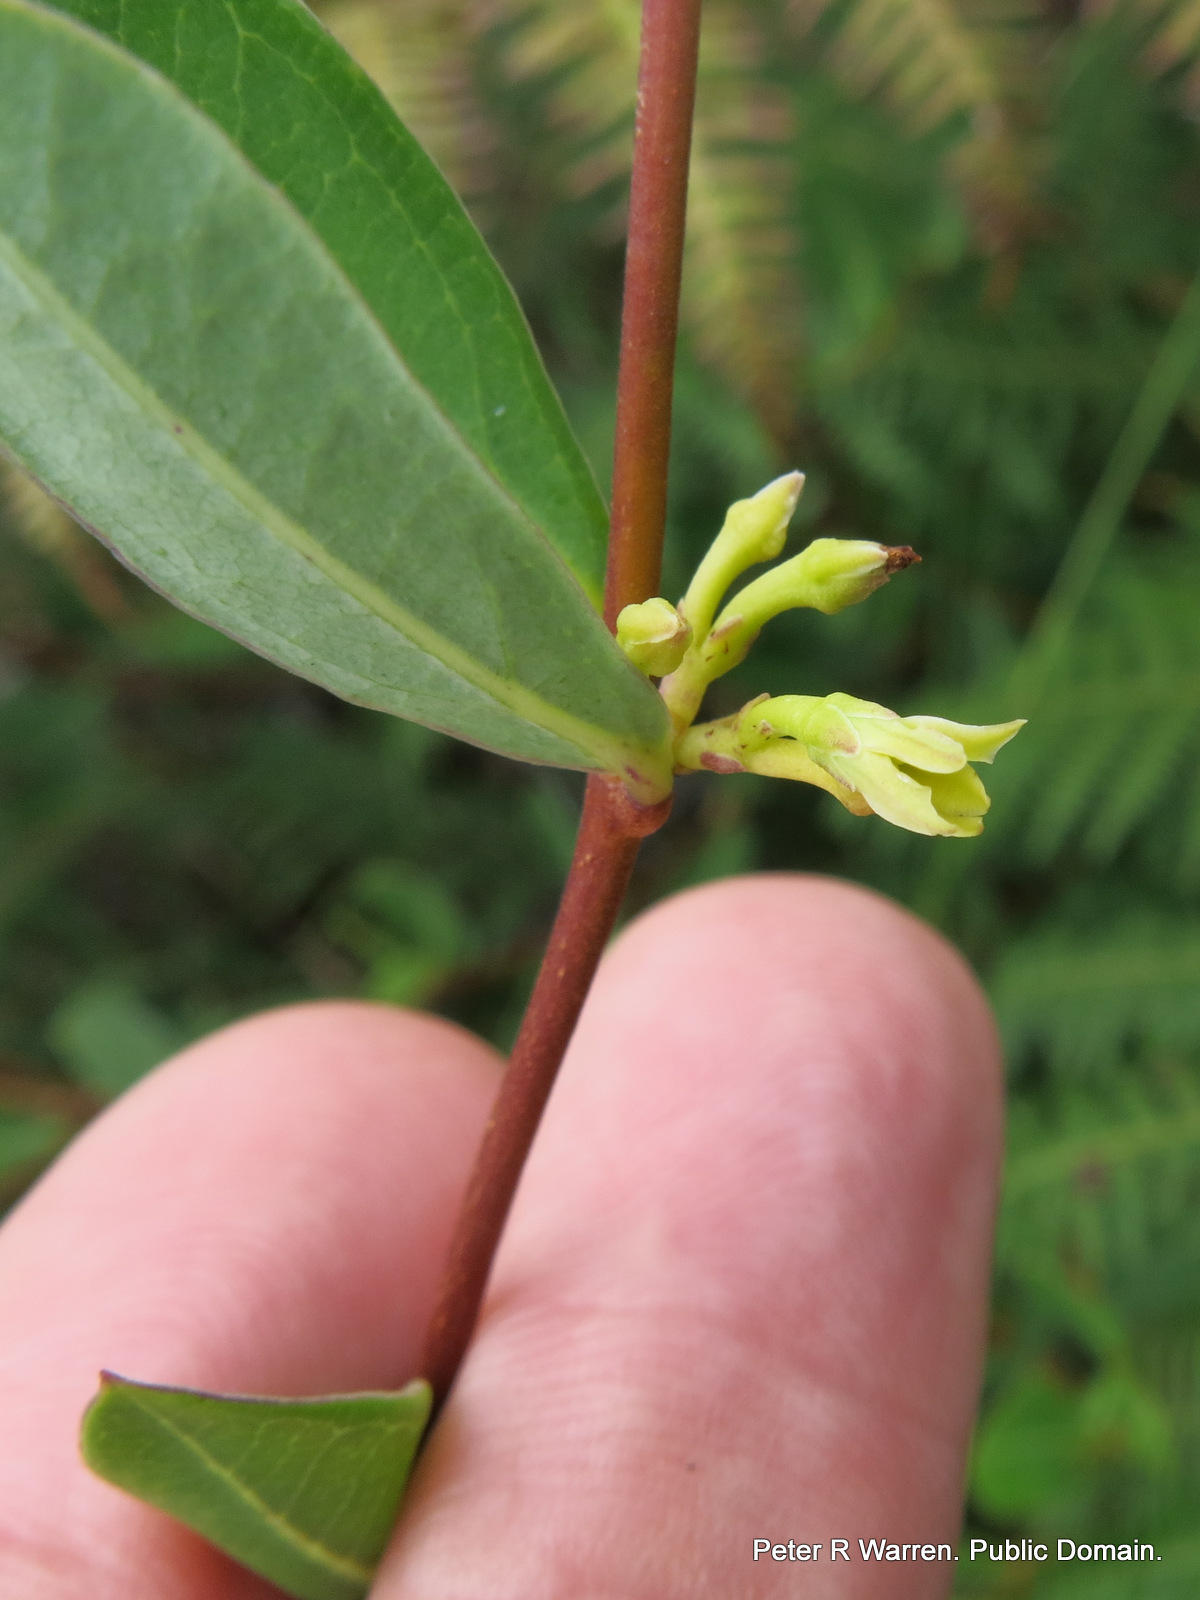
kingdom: Plantae
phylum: Tracheophyta
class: Magnoliopsida
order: Gentianales
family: Apocynaceae
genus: Cryptolepis
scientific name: Cryptolepis oblongifolia
